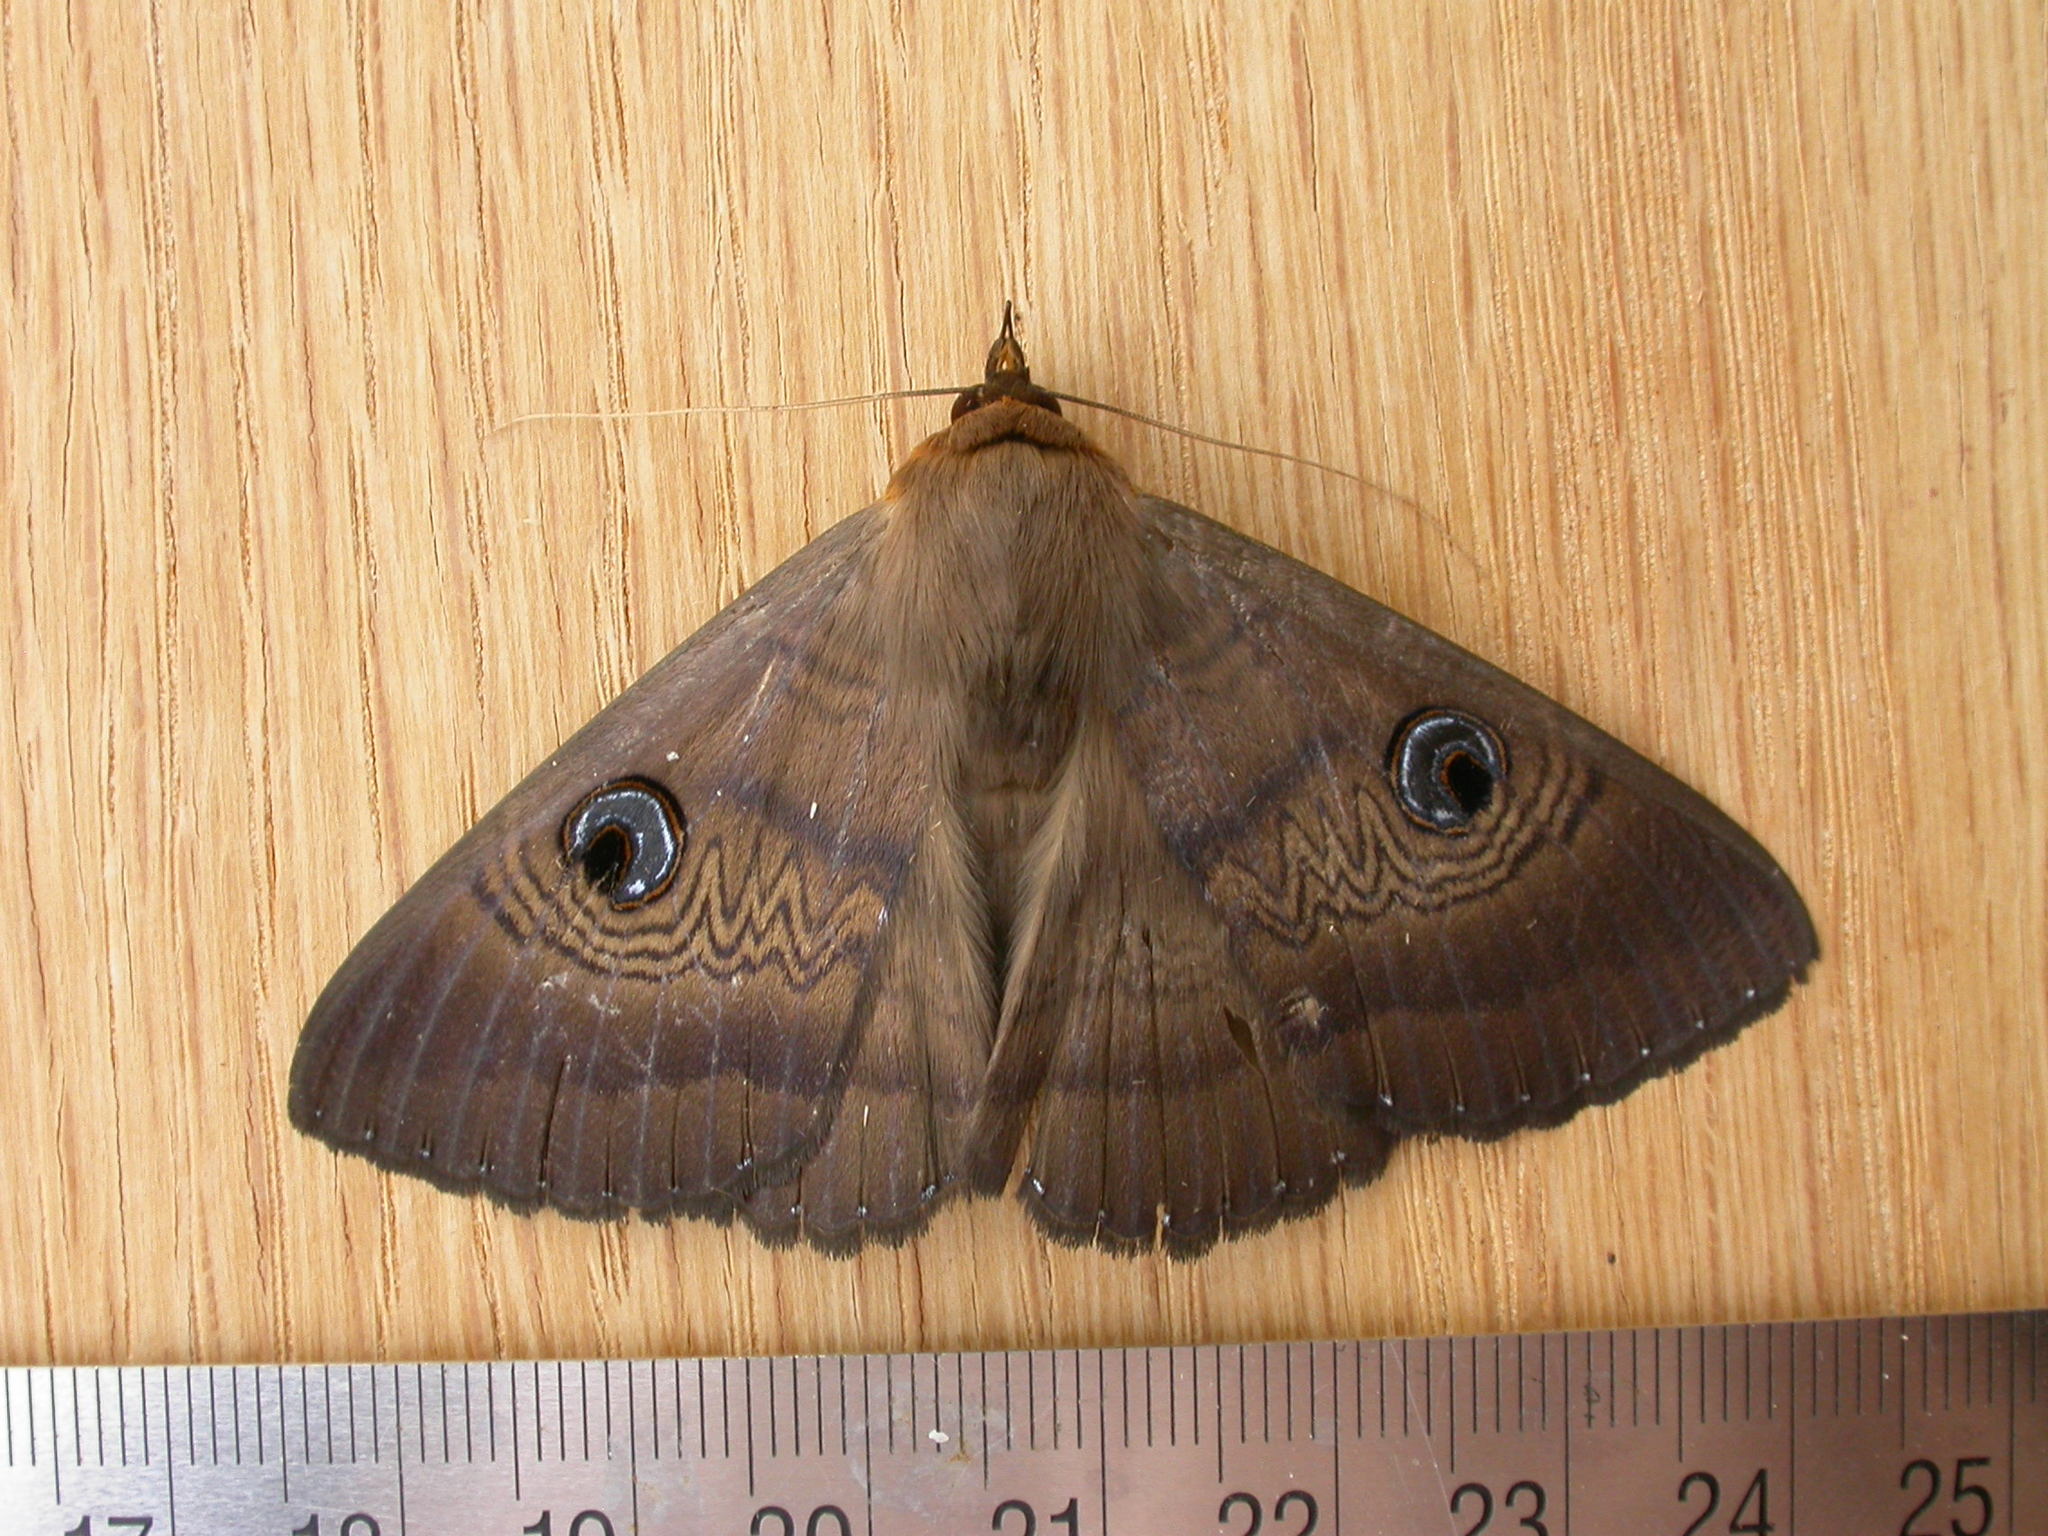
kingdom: Animalia
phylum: Arthropoda
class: Insecta
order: Lepidoptera
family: Erebidae
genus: Dasypodia
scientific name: Dasypodia selenophora
